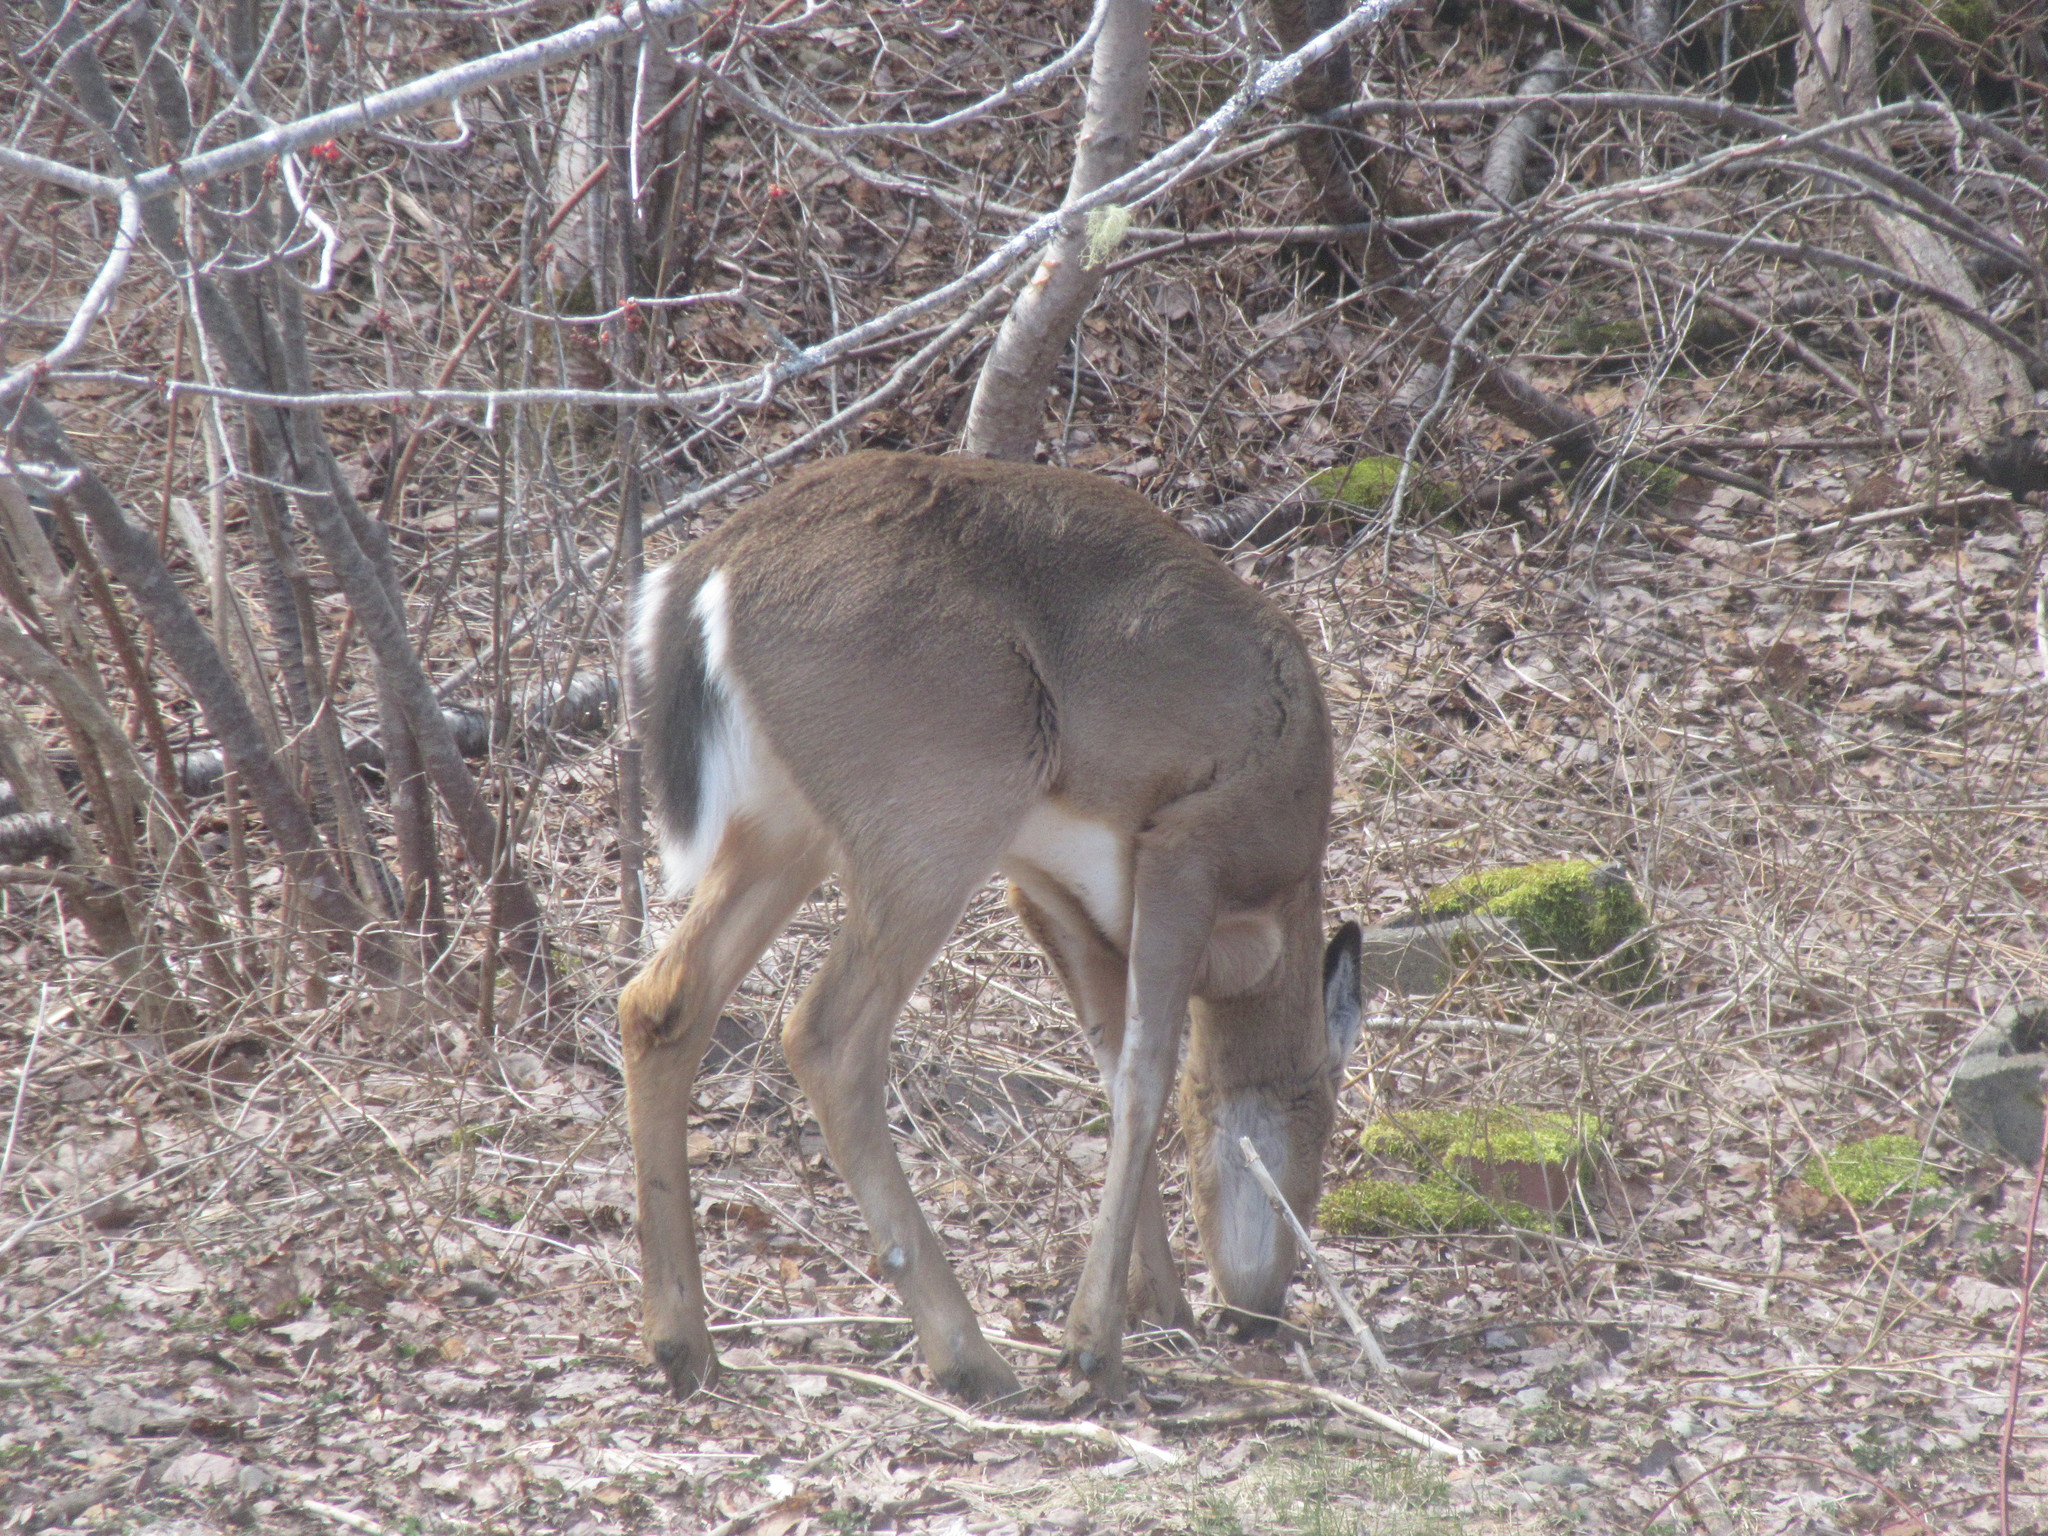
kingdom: Animalia
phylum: Chordata
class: Mammalia
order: Artiodactyla
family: Cervidae
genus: Odocoileus
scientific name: Odocoileus virginianus
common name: White-tailed deer
